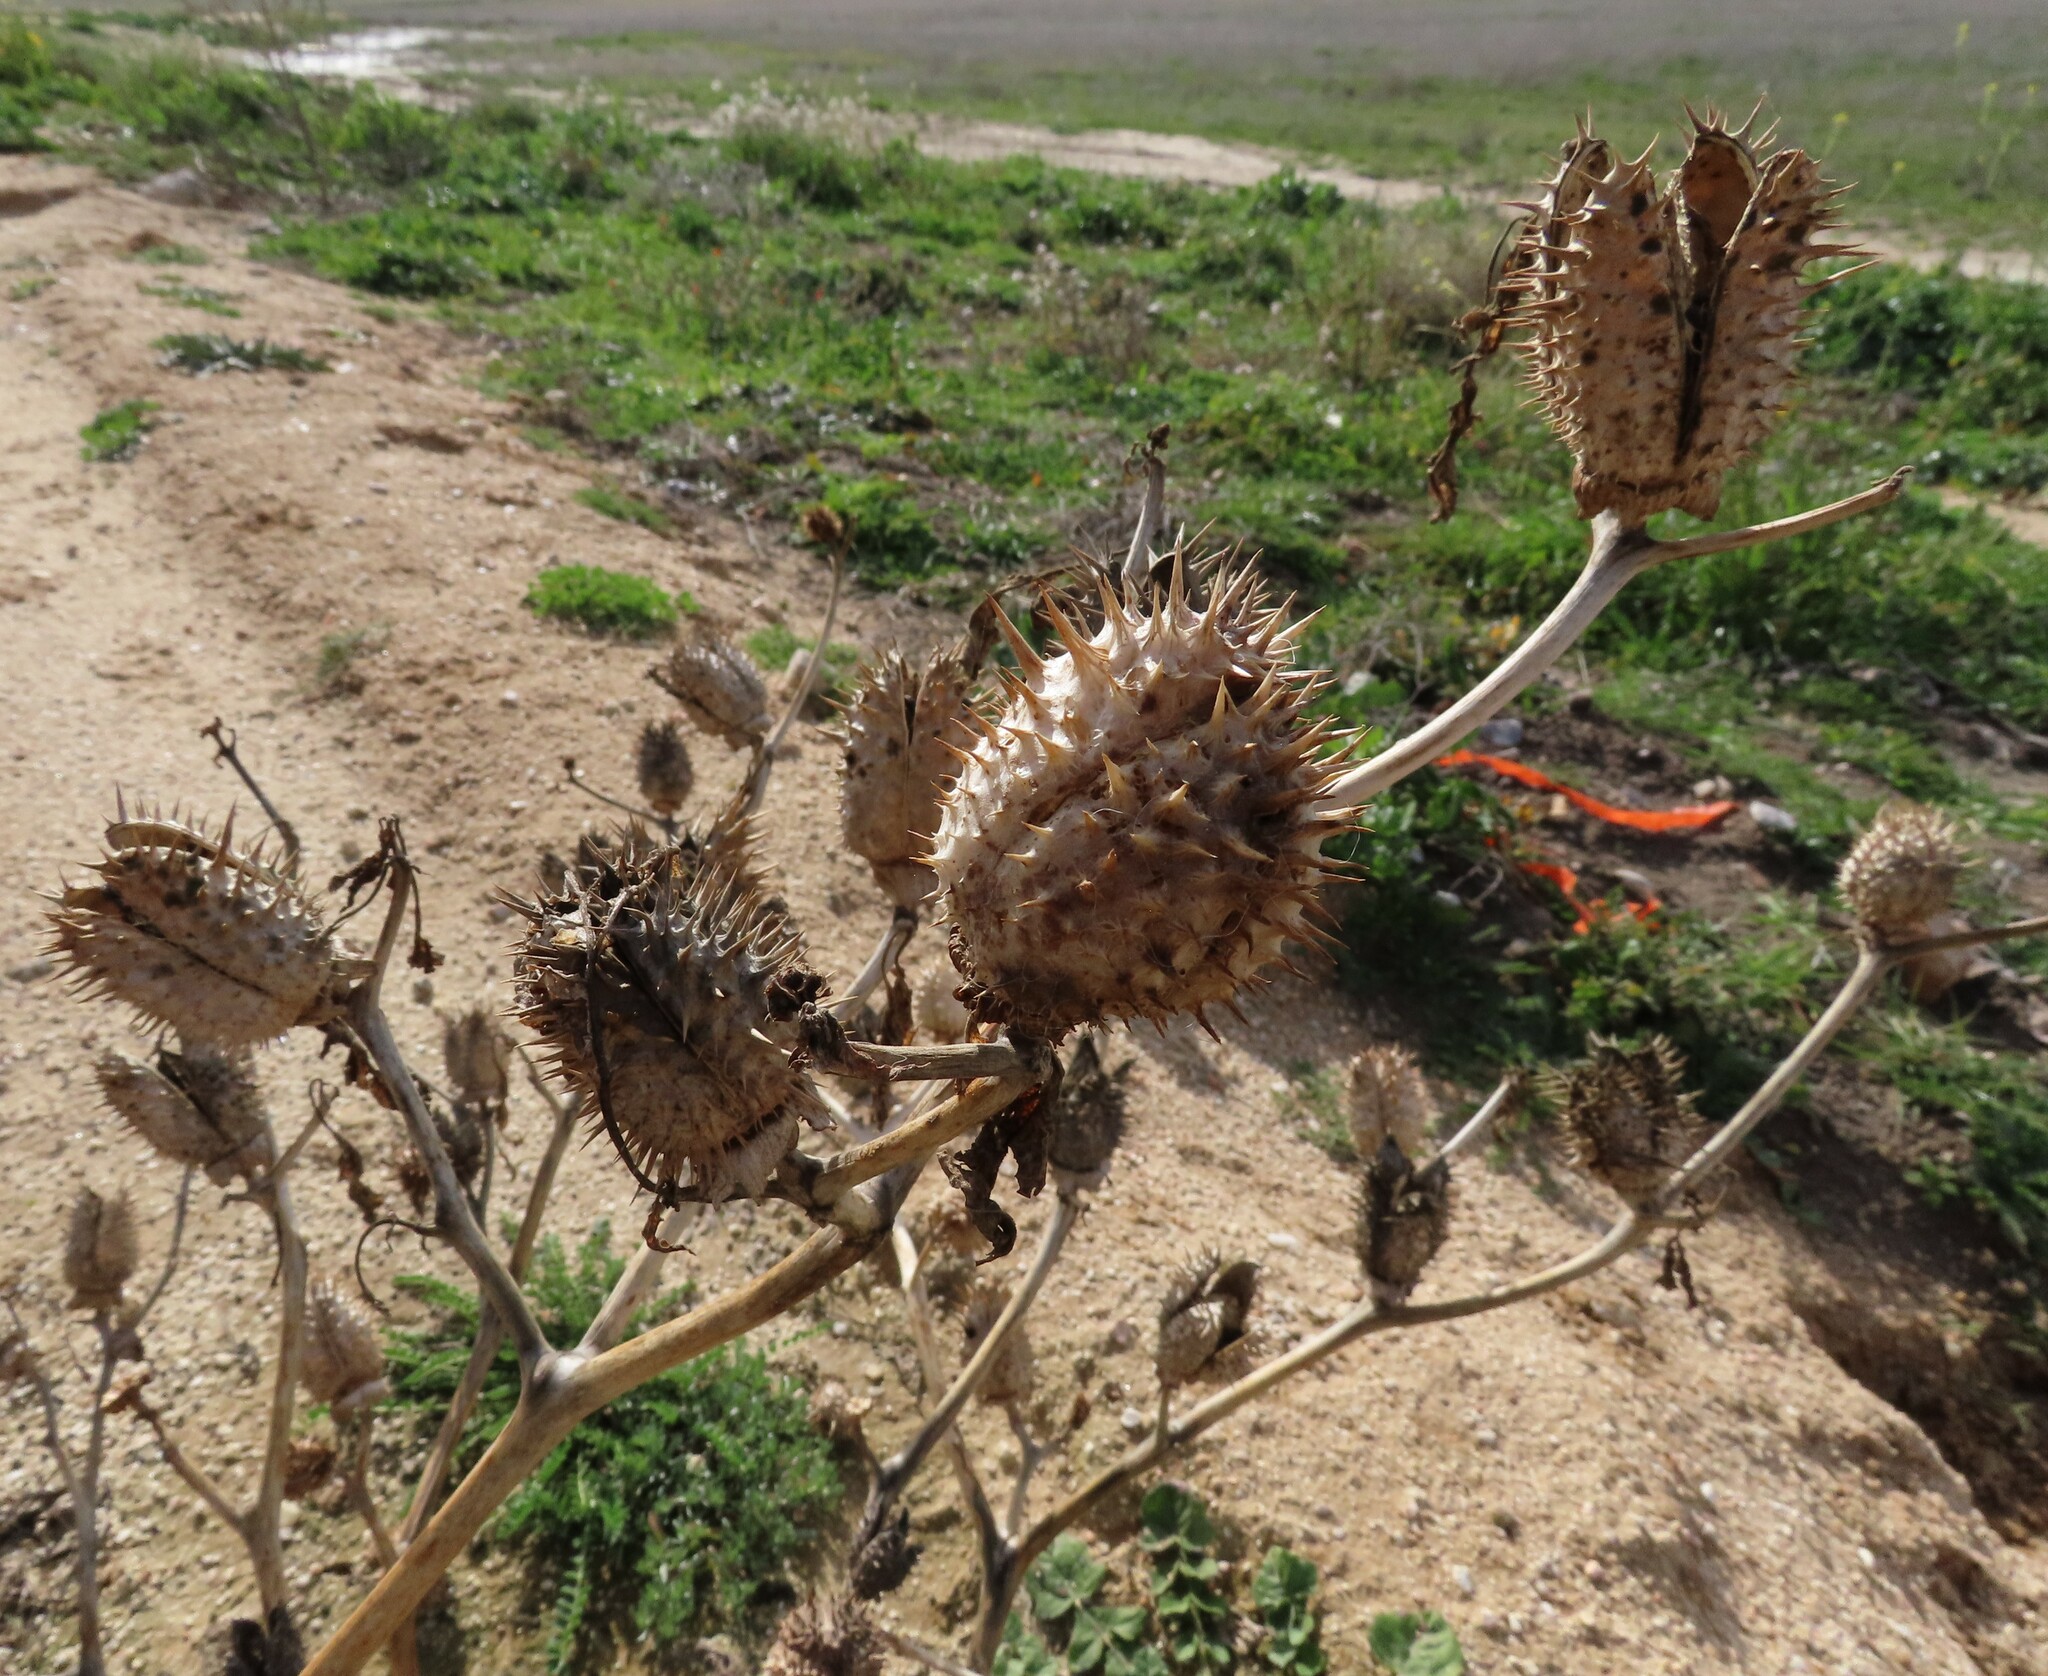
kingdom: Plantae
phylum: Tracheophyta
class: Magnoliopsida
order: Solanales
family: Solanaceae
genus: Datura
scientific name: Datura stramonium
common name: Thorn-apple
